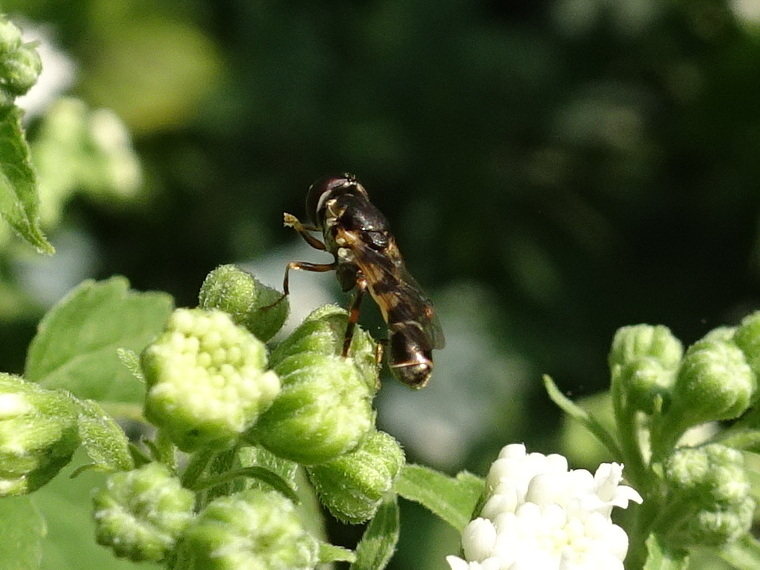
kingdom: Animalia
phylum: Arthropoda
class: Insecta
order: Diptera
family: Syrphidae
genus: Syritta
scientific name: Syritta pipiens
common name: Hover fly
